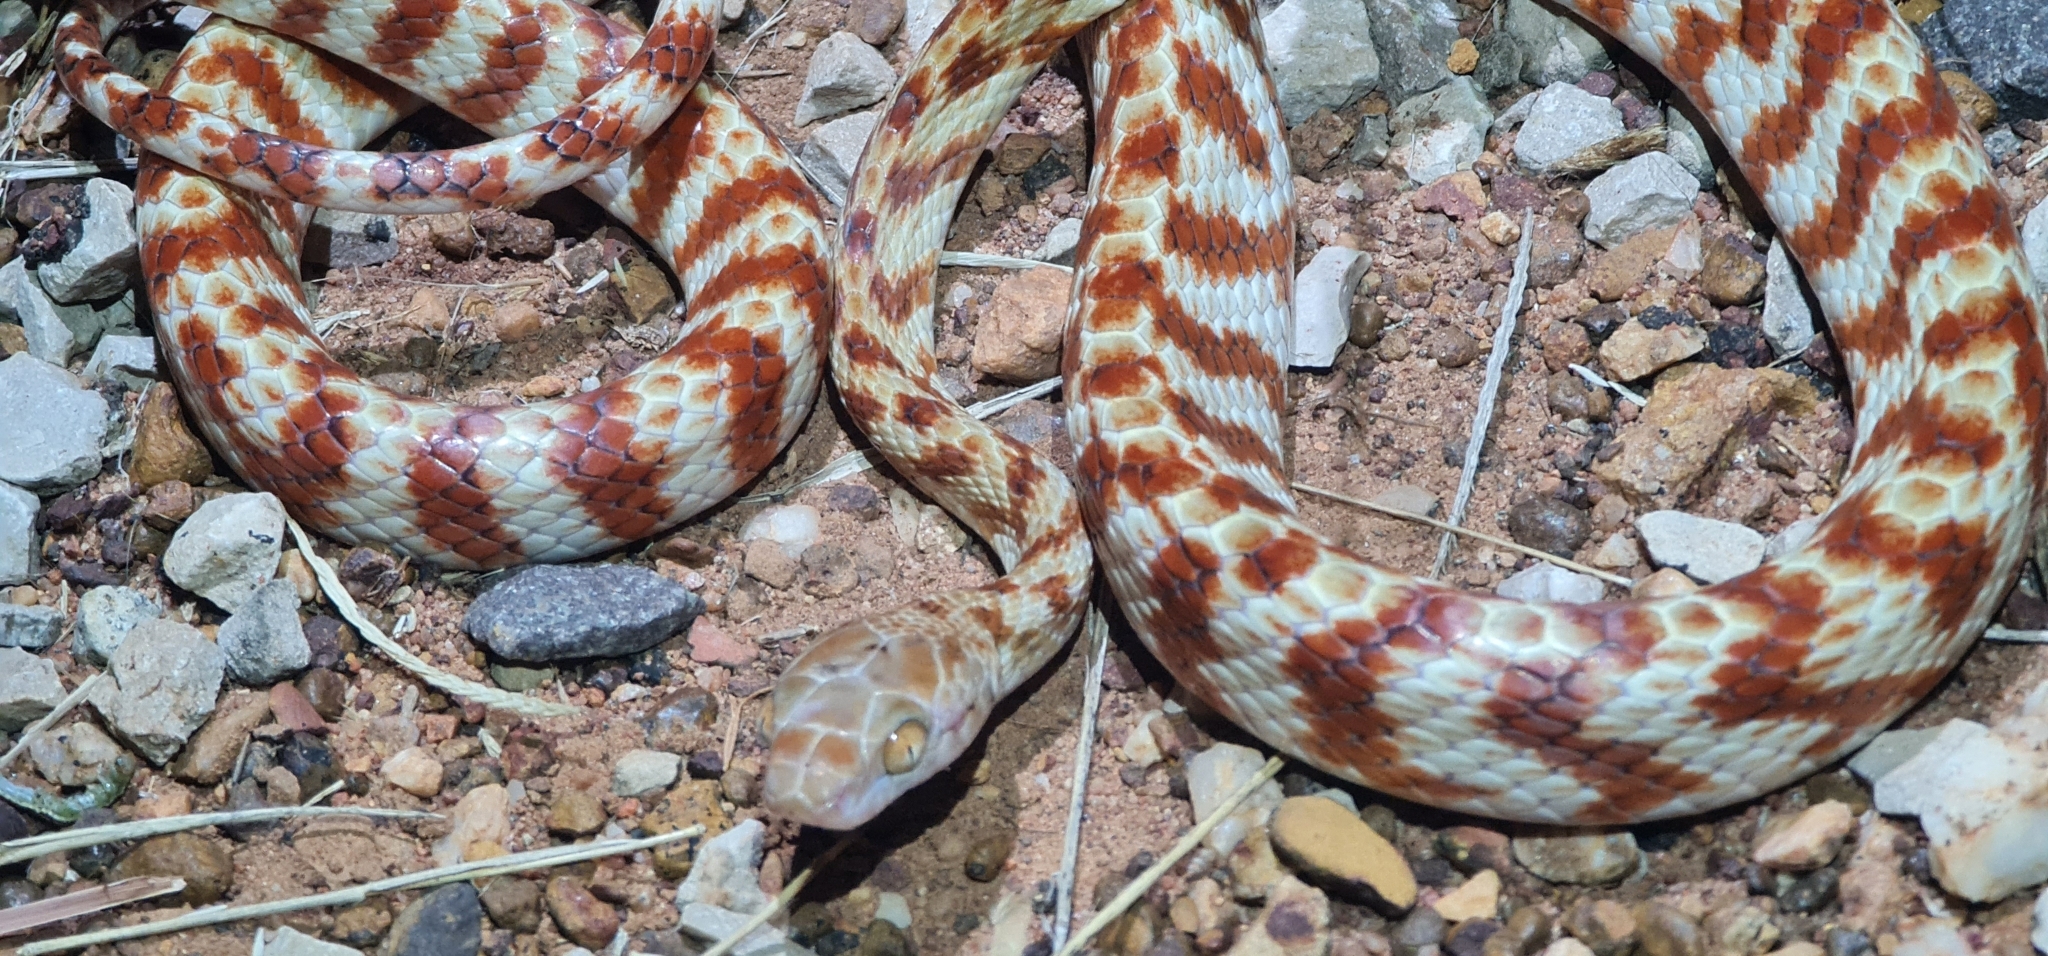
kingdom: Animalia
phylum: Chordata
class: Squamata
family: Colubridae
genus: Boiga
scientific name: Boiga irregularis
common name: Brown tree snake
